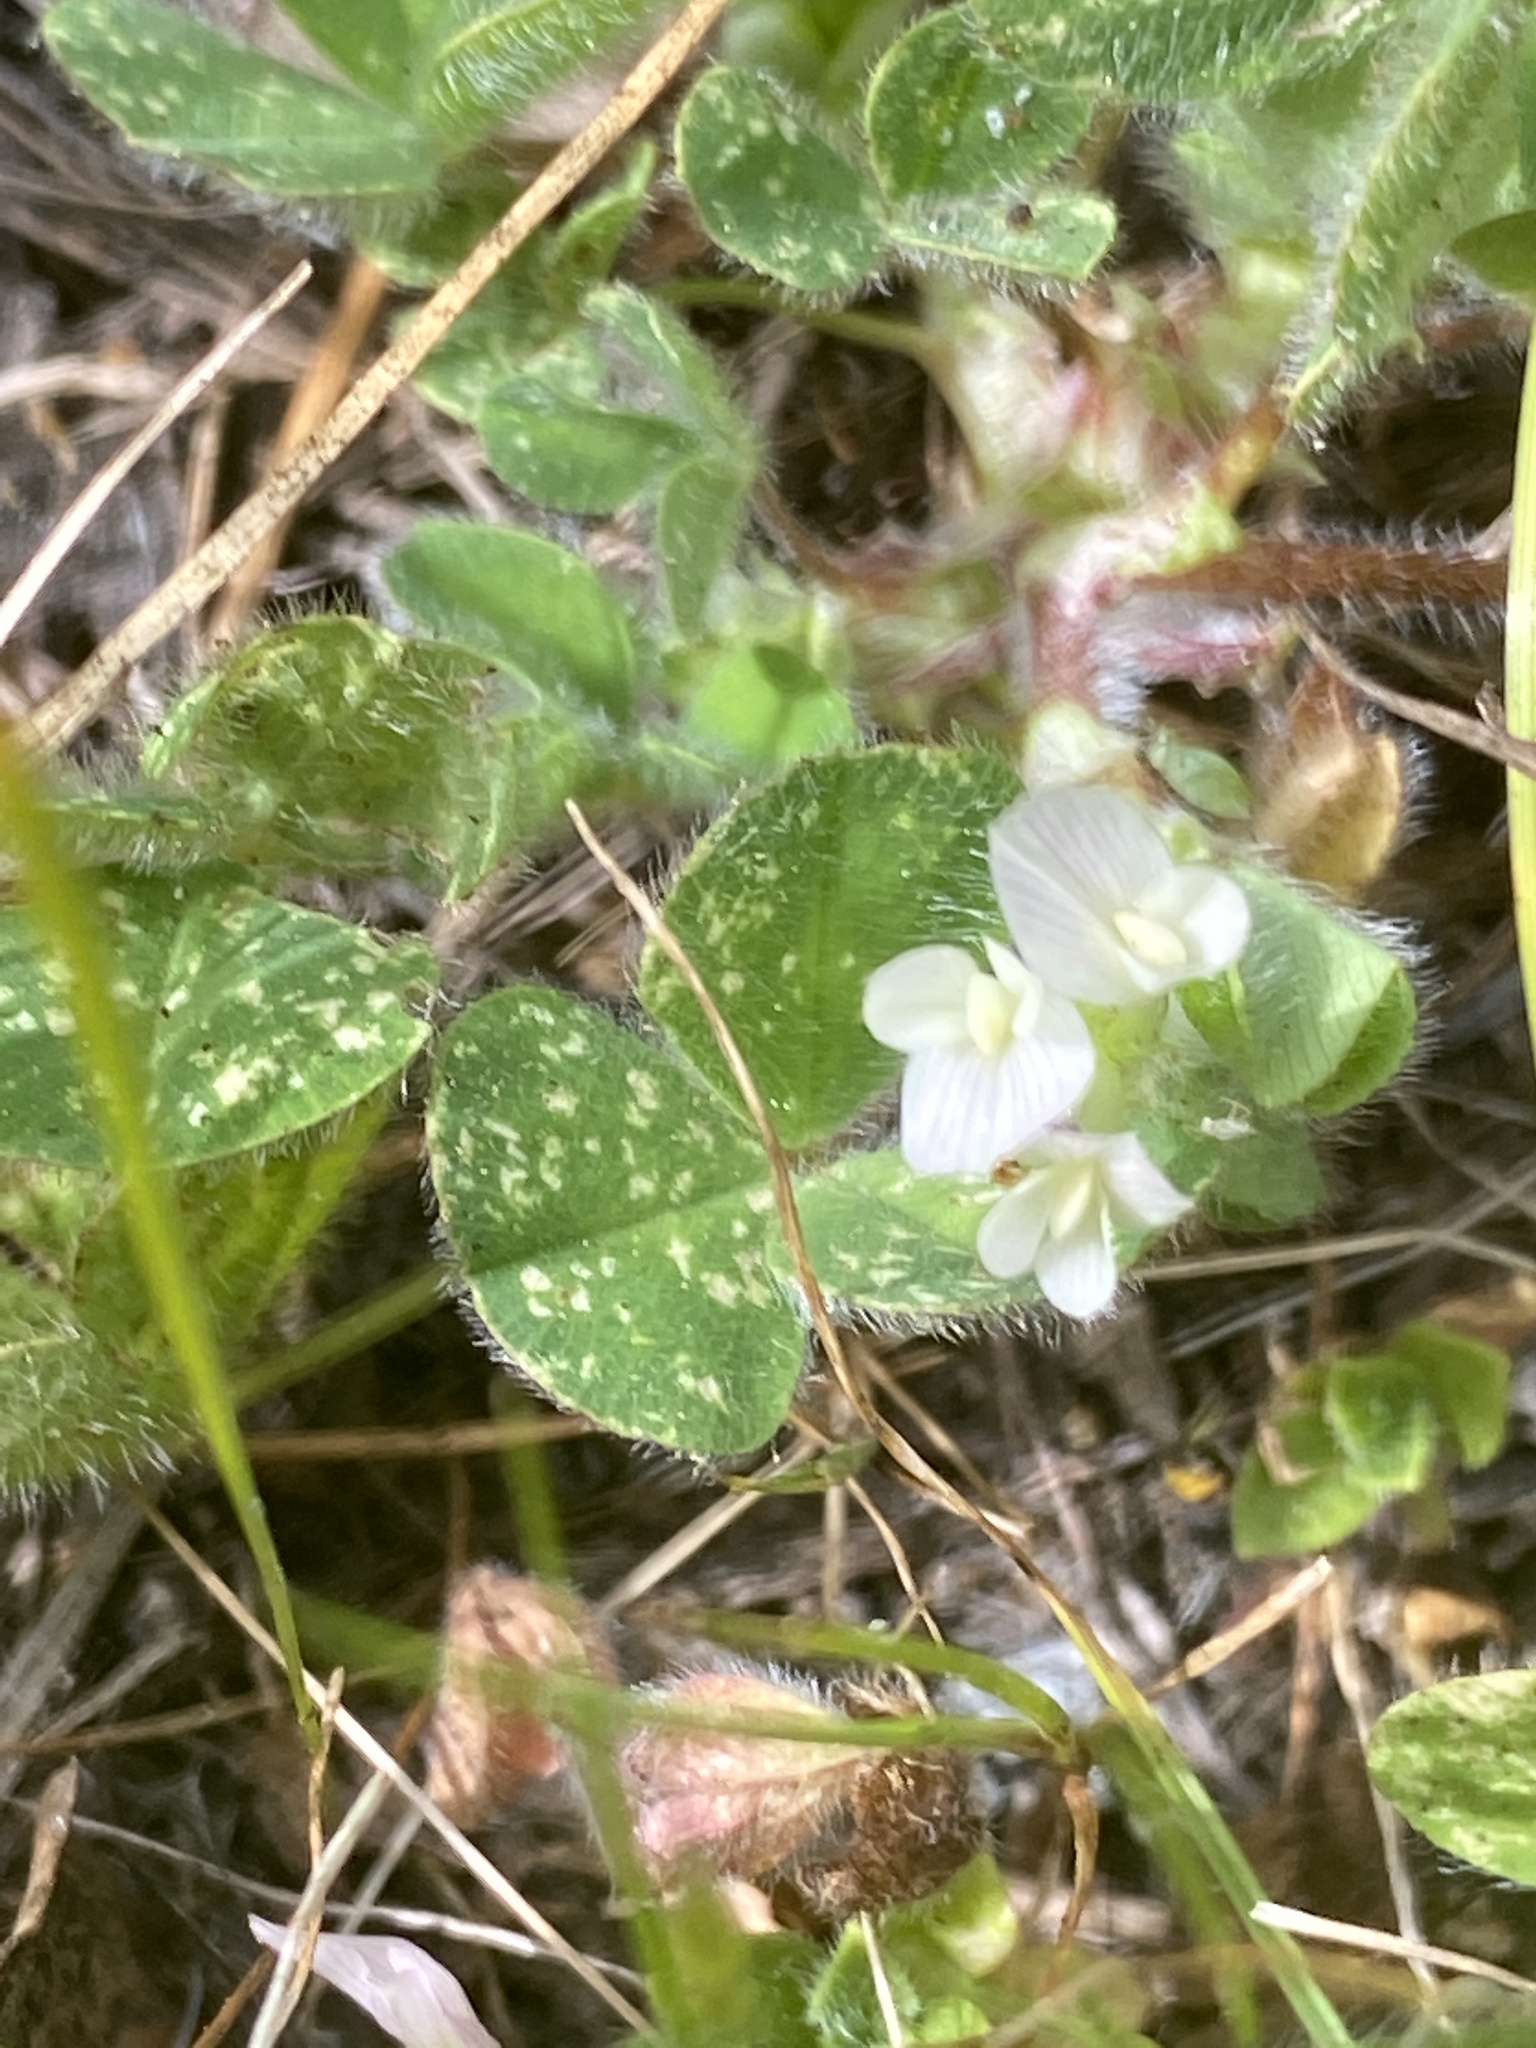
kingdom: Plantae
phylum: Tracheophyta
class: Magnoliopsida
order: Fabales
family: Fabaceae
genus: Trifolium
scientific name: Trifolium subterraneum
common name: Subterranean clover
